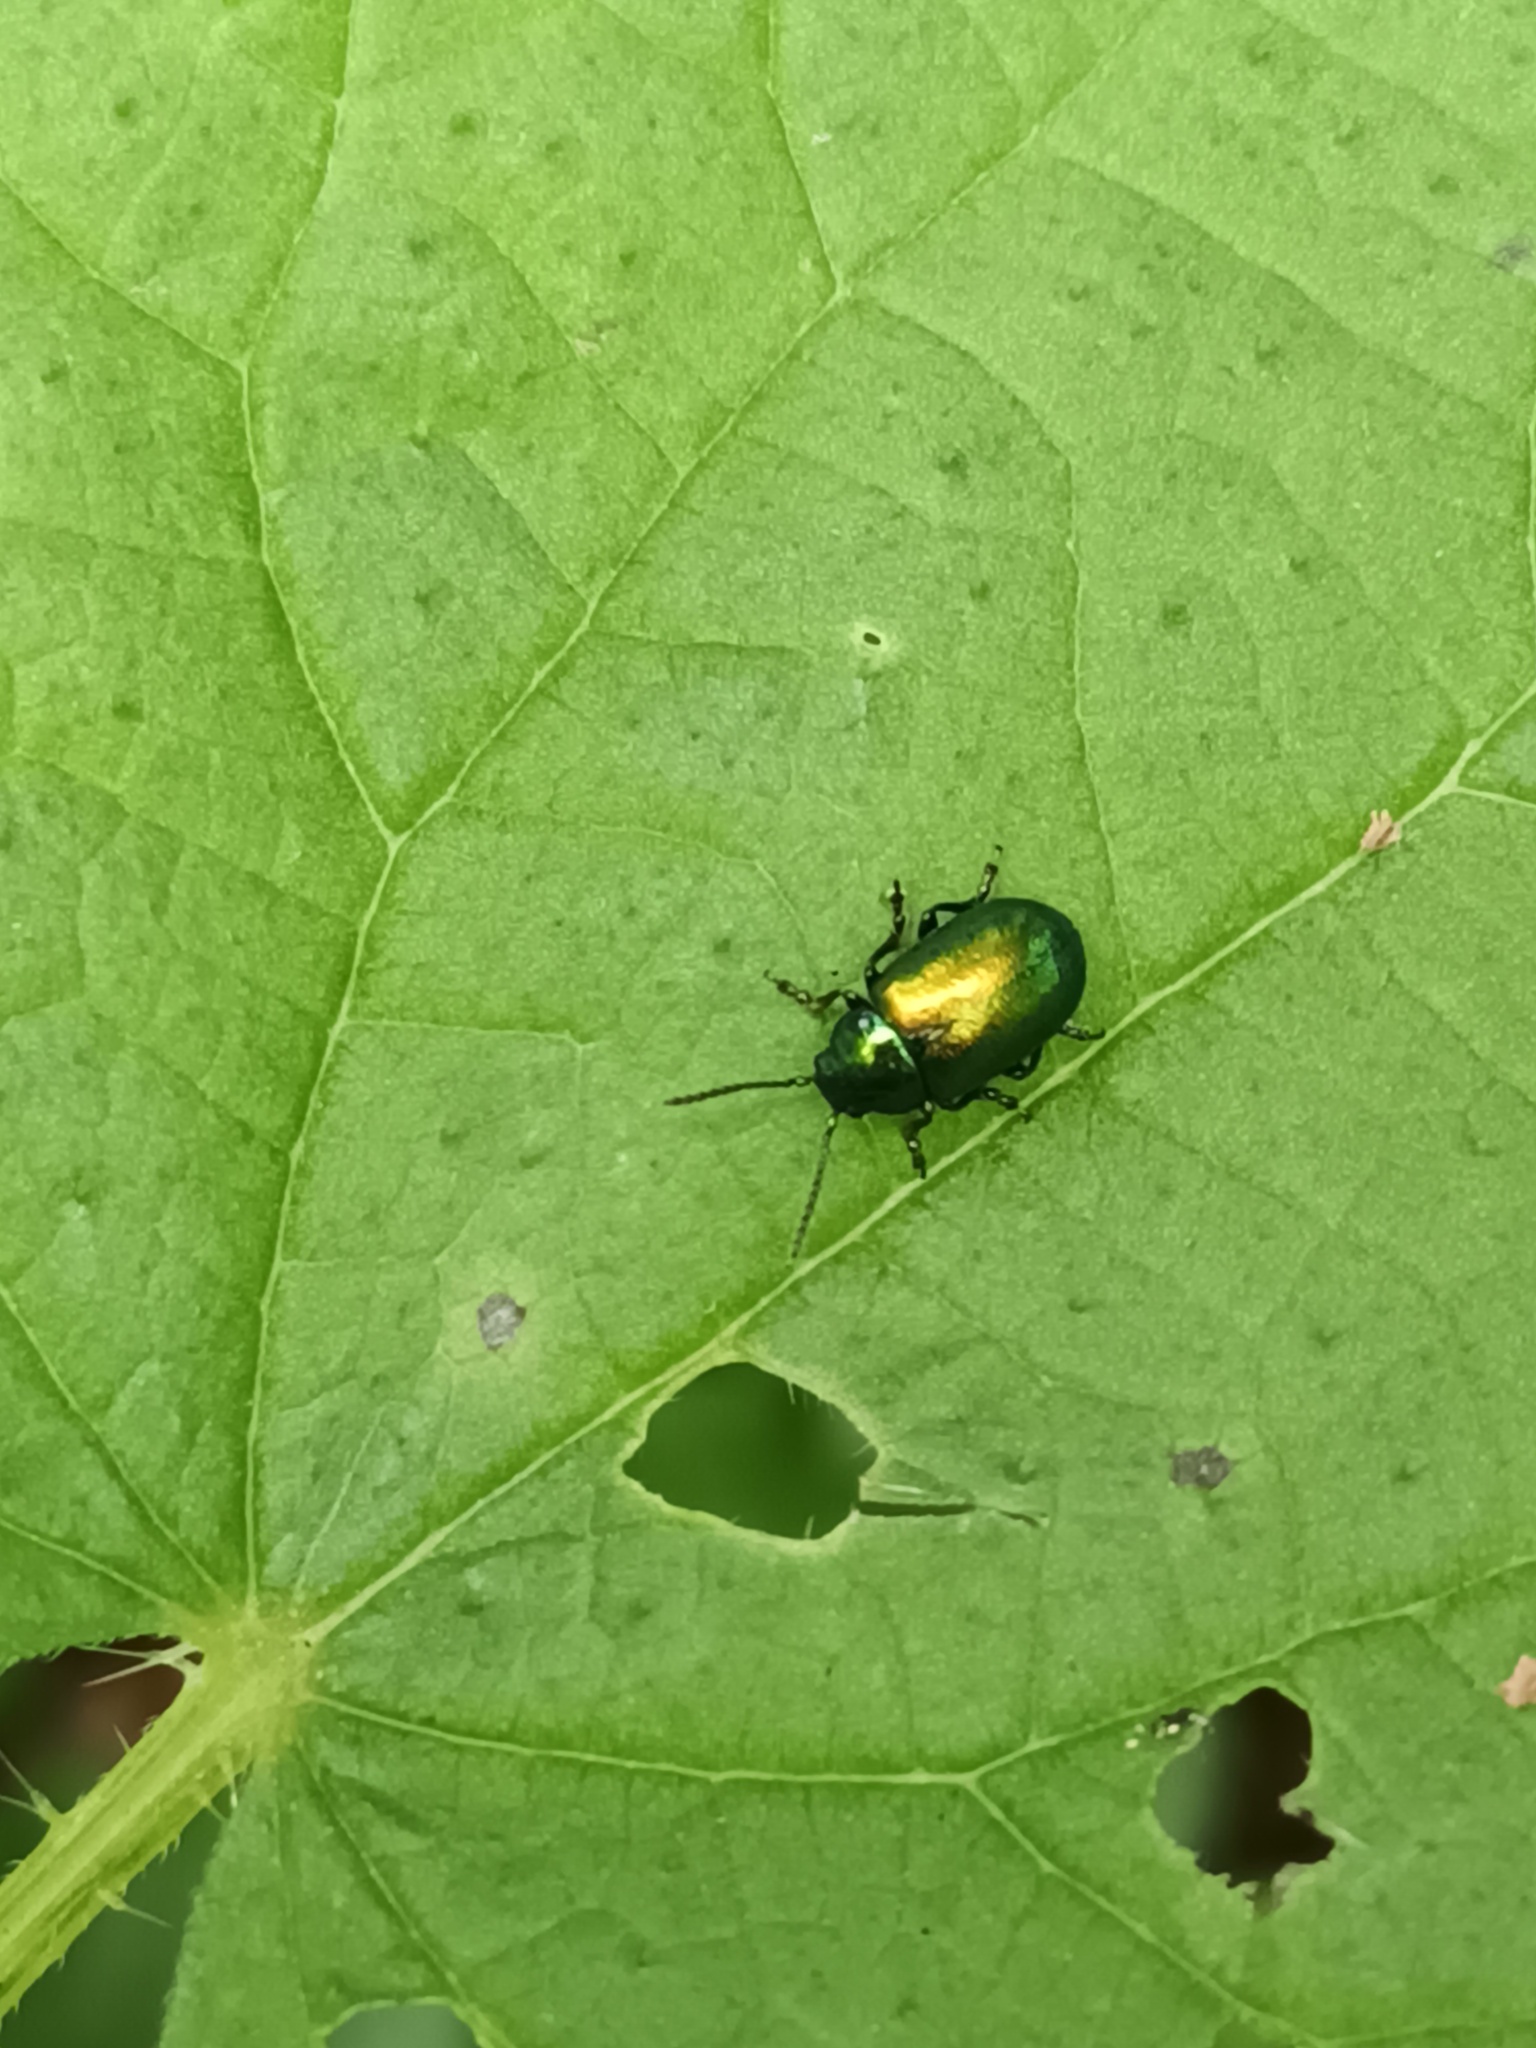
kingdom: Animalia
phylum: Arthropoda
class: Insecta
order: Coleoptera
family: Chrysomelidae
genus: Gastrophysa
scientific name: Gastrophysa viridula
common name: Green dock beetle
